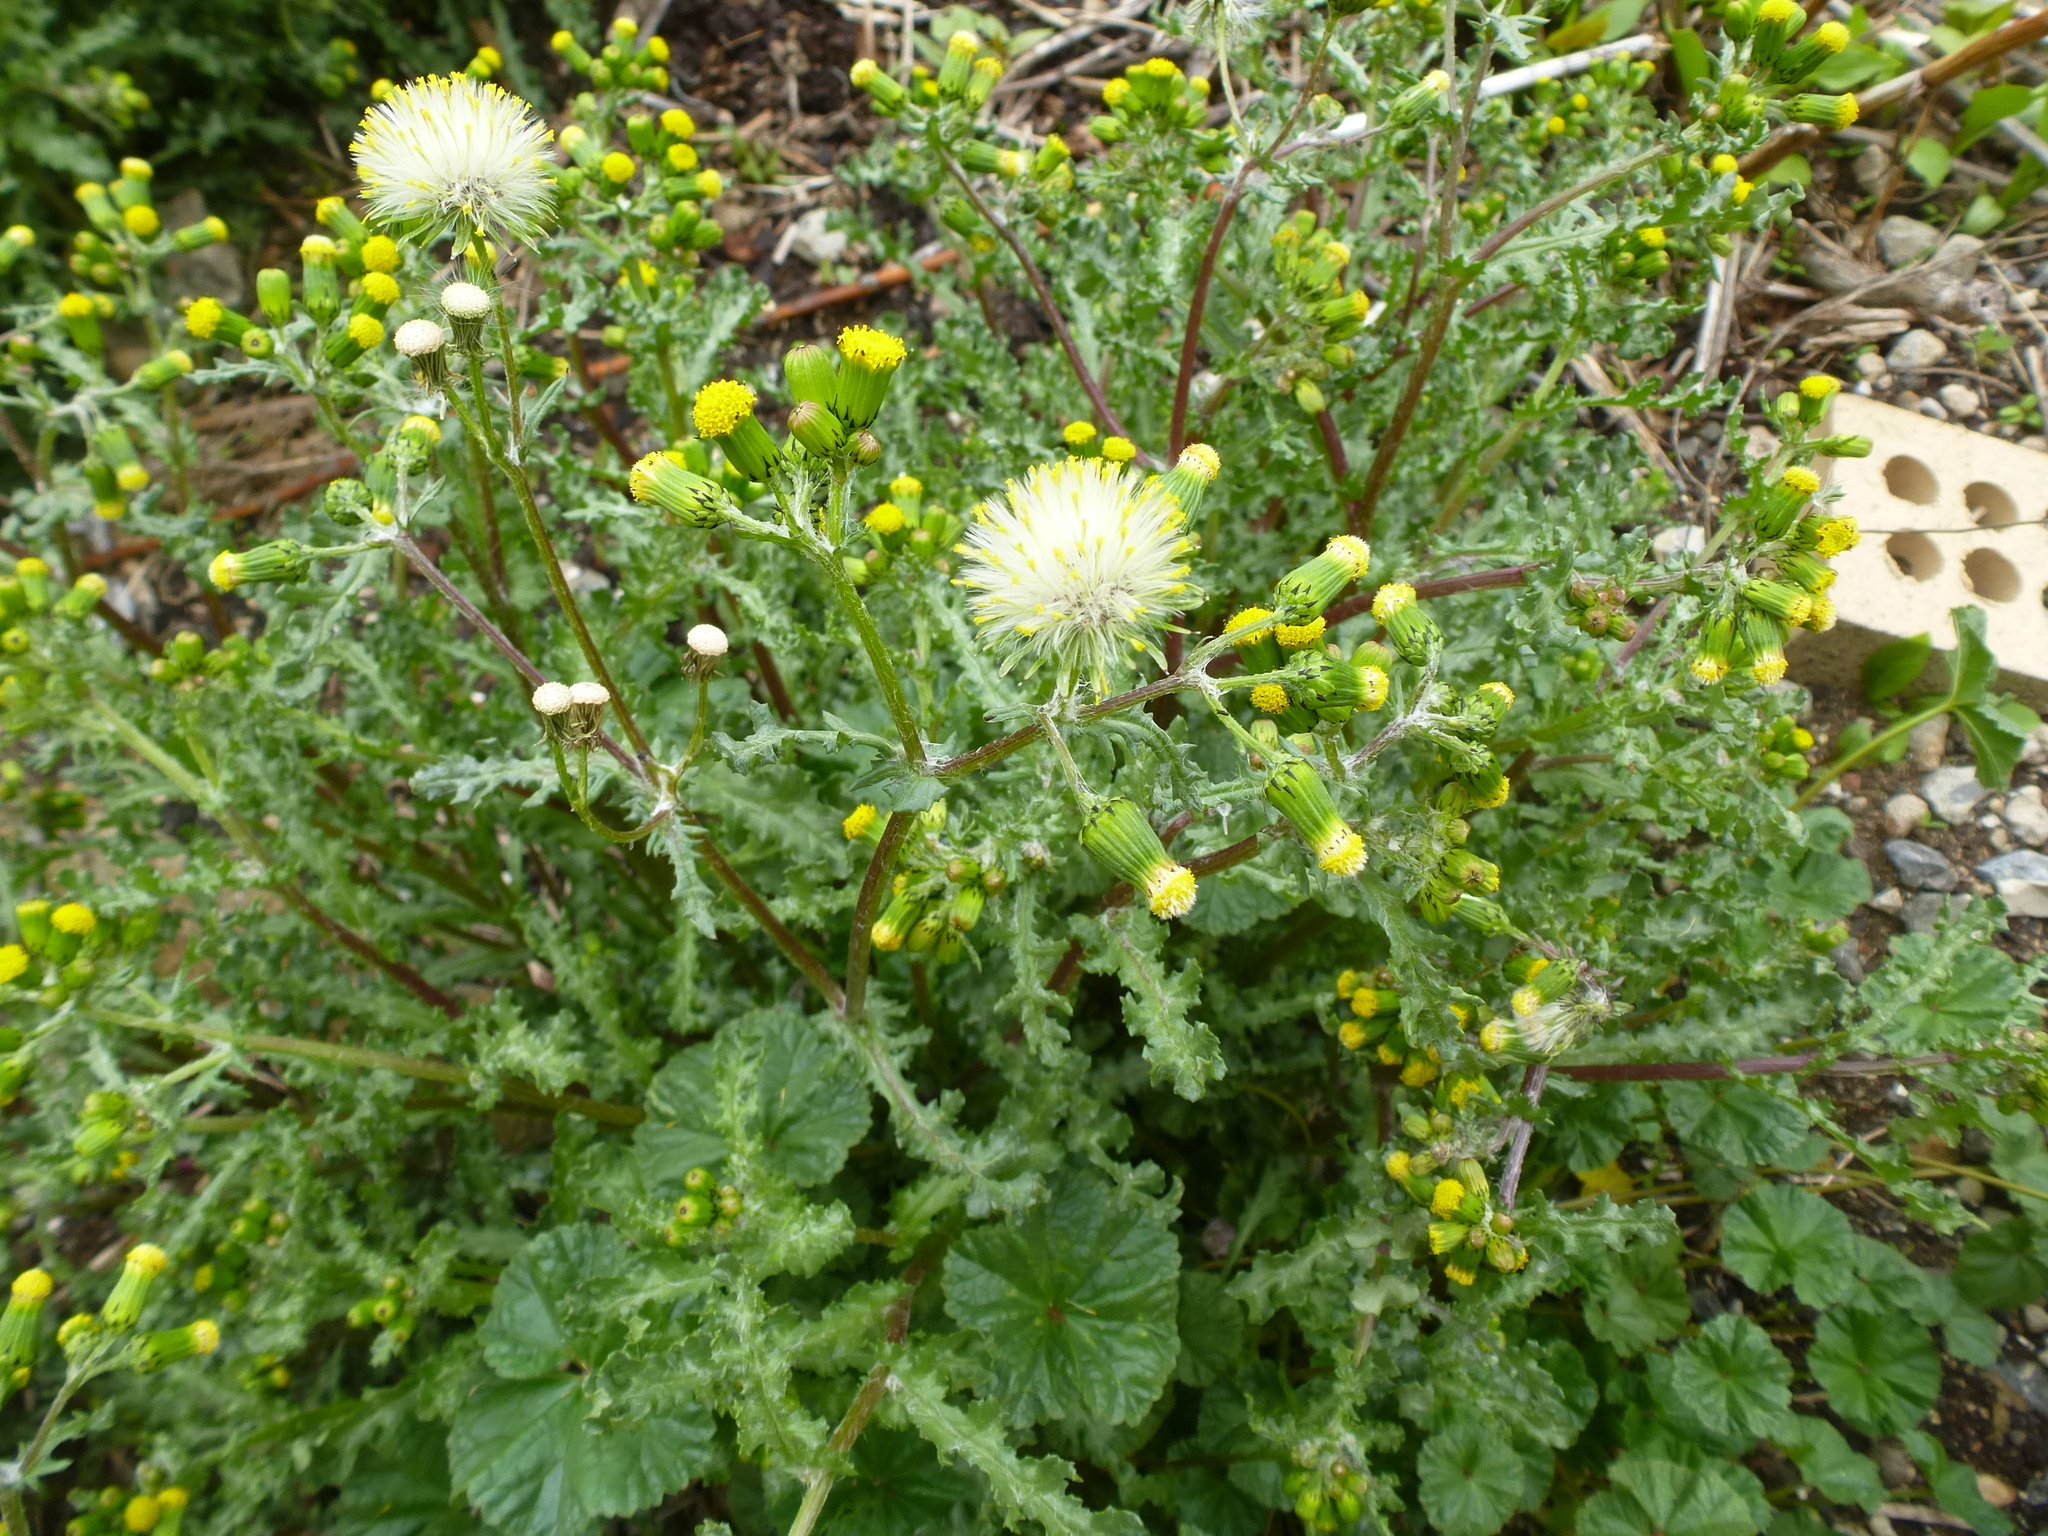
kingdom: Plantae
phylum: Tracheophyta
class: Magnoliopsida
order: Asterales
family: Asteraceae
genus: Senecio
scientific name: Senecio vulgaris
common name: Old-man-in-the-spring
